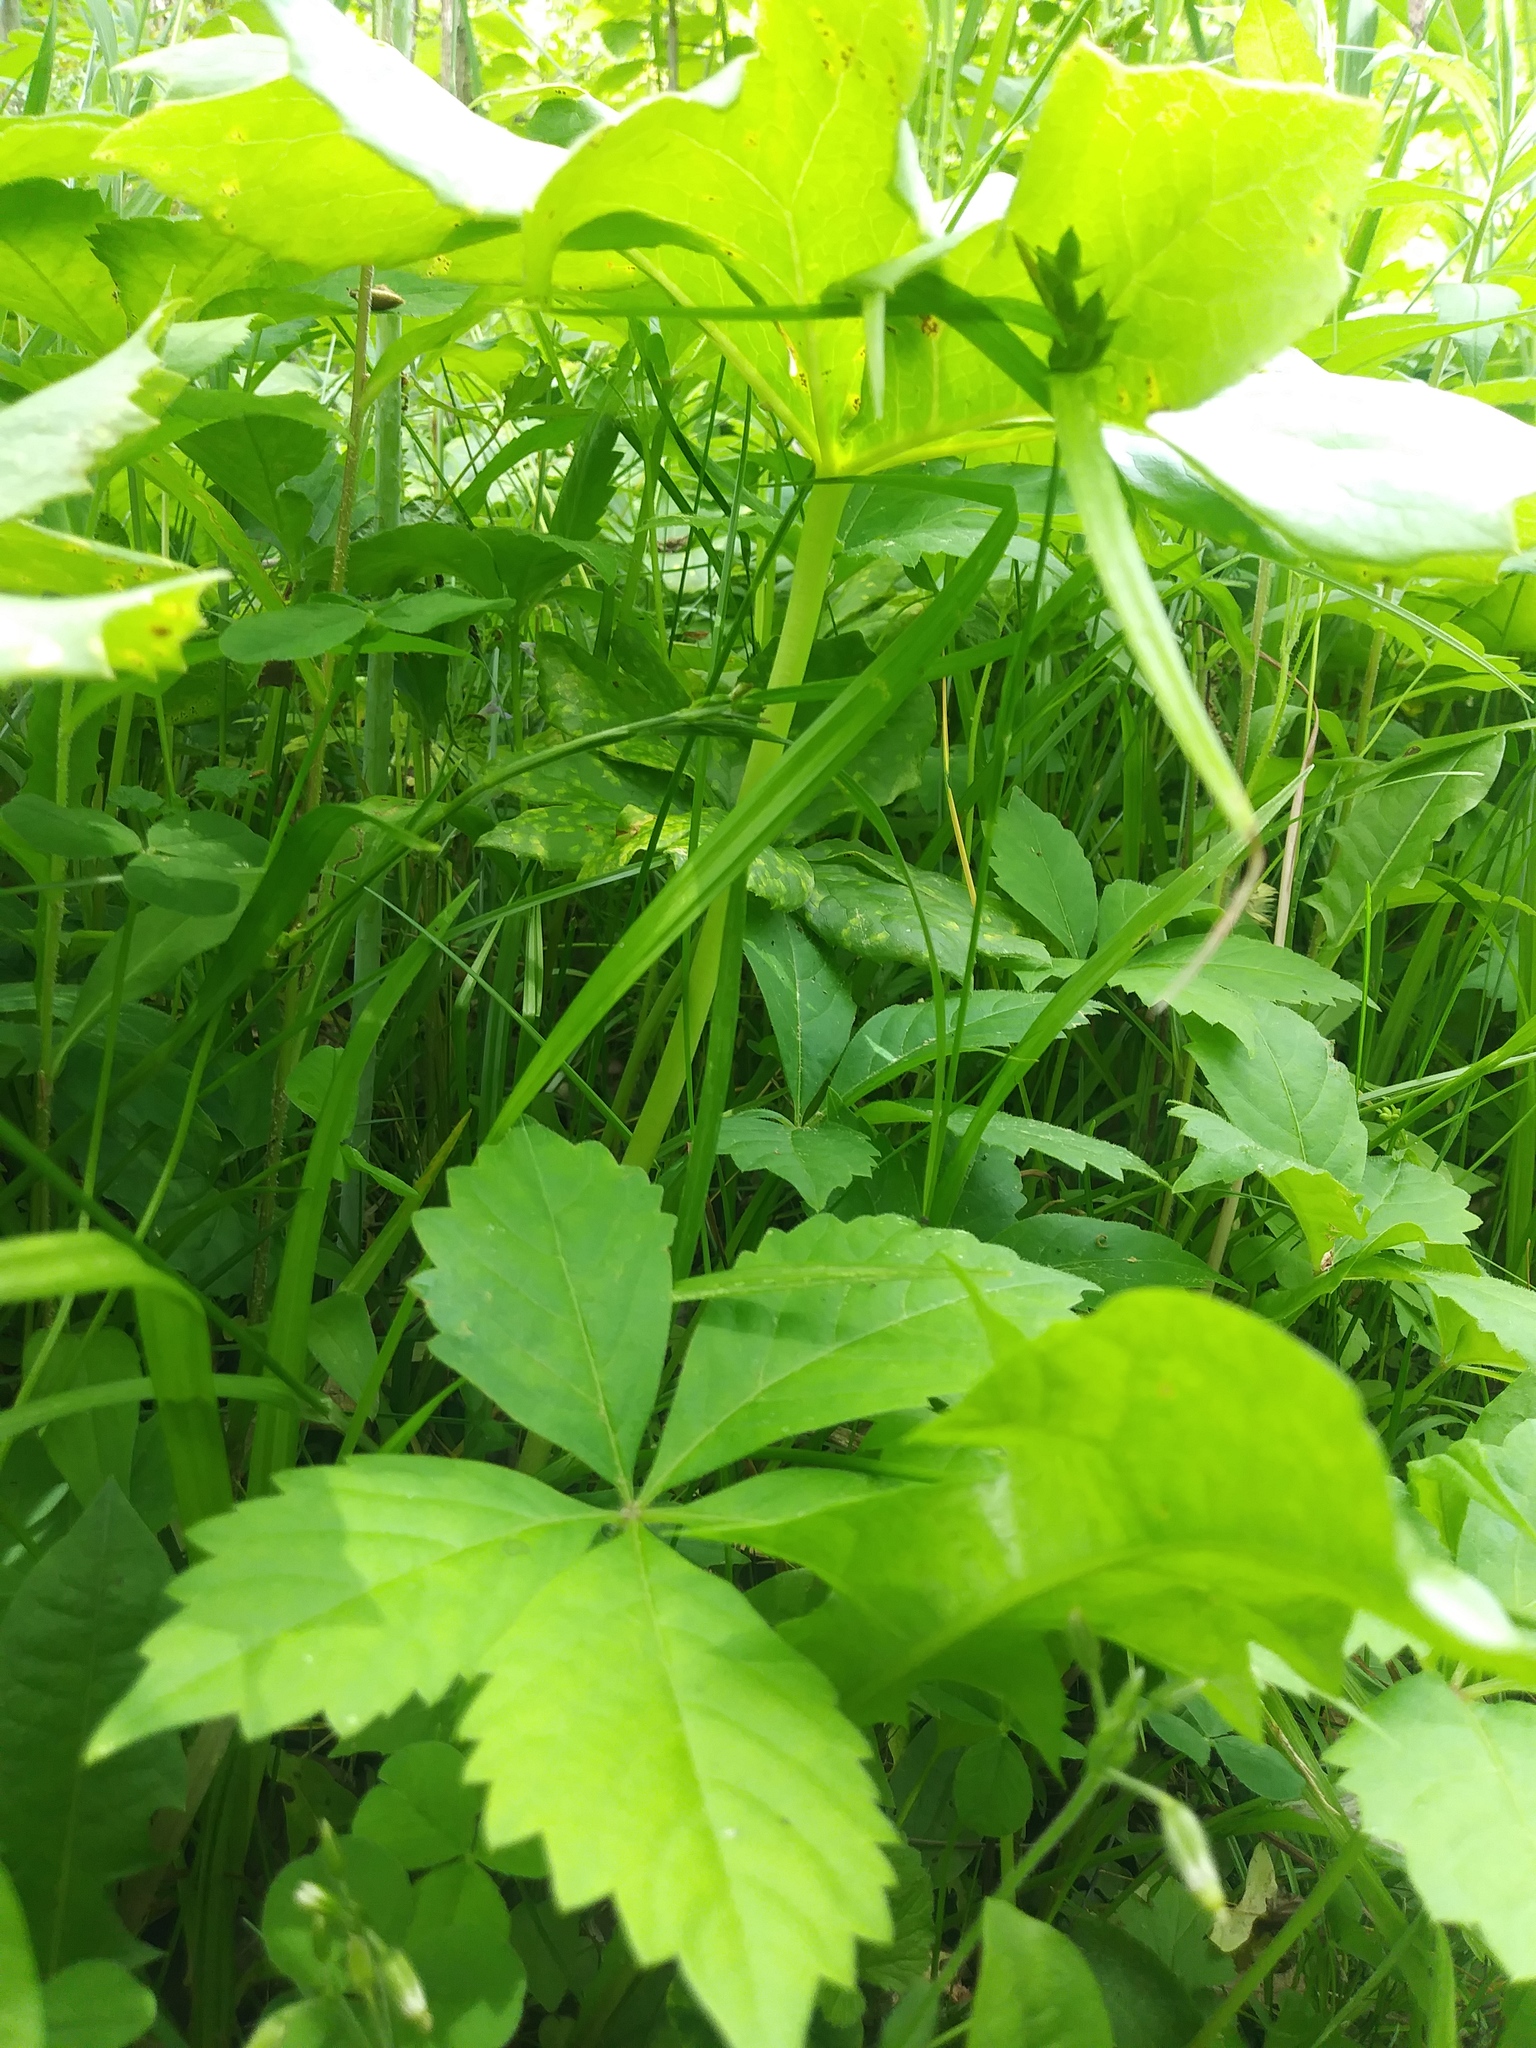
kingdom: Plantae
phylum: Tracheophyta
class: Magnoliopsida
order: Ranunculales
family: Berberidaceae
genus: Podophyllum
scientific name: Podophyllum peltatum
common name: Wild mandrake
